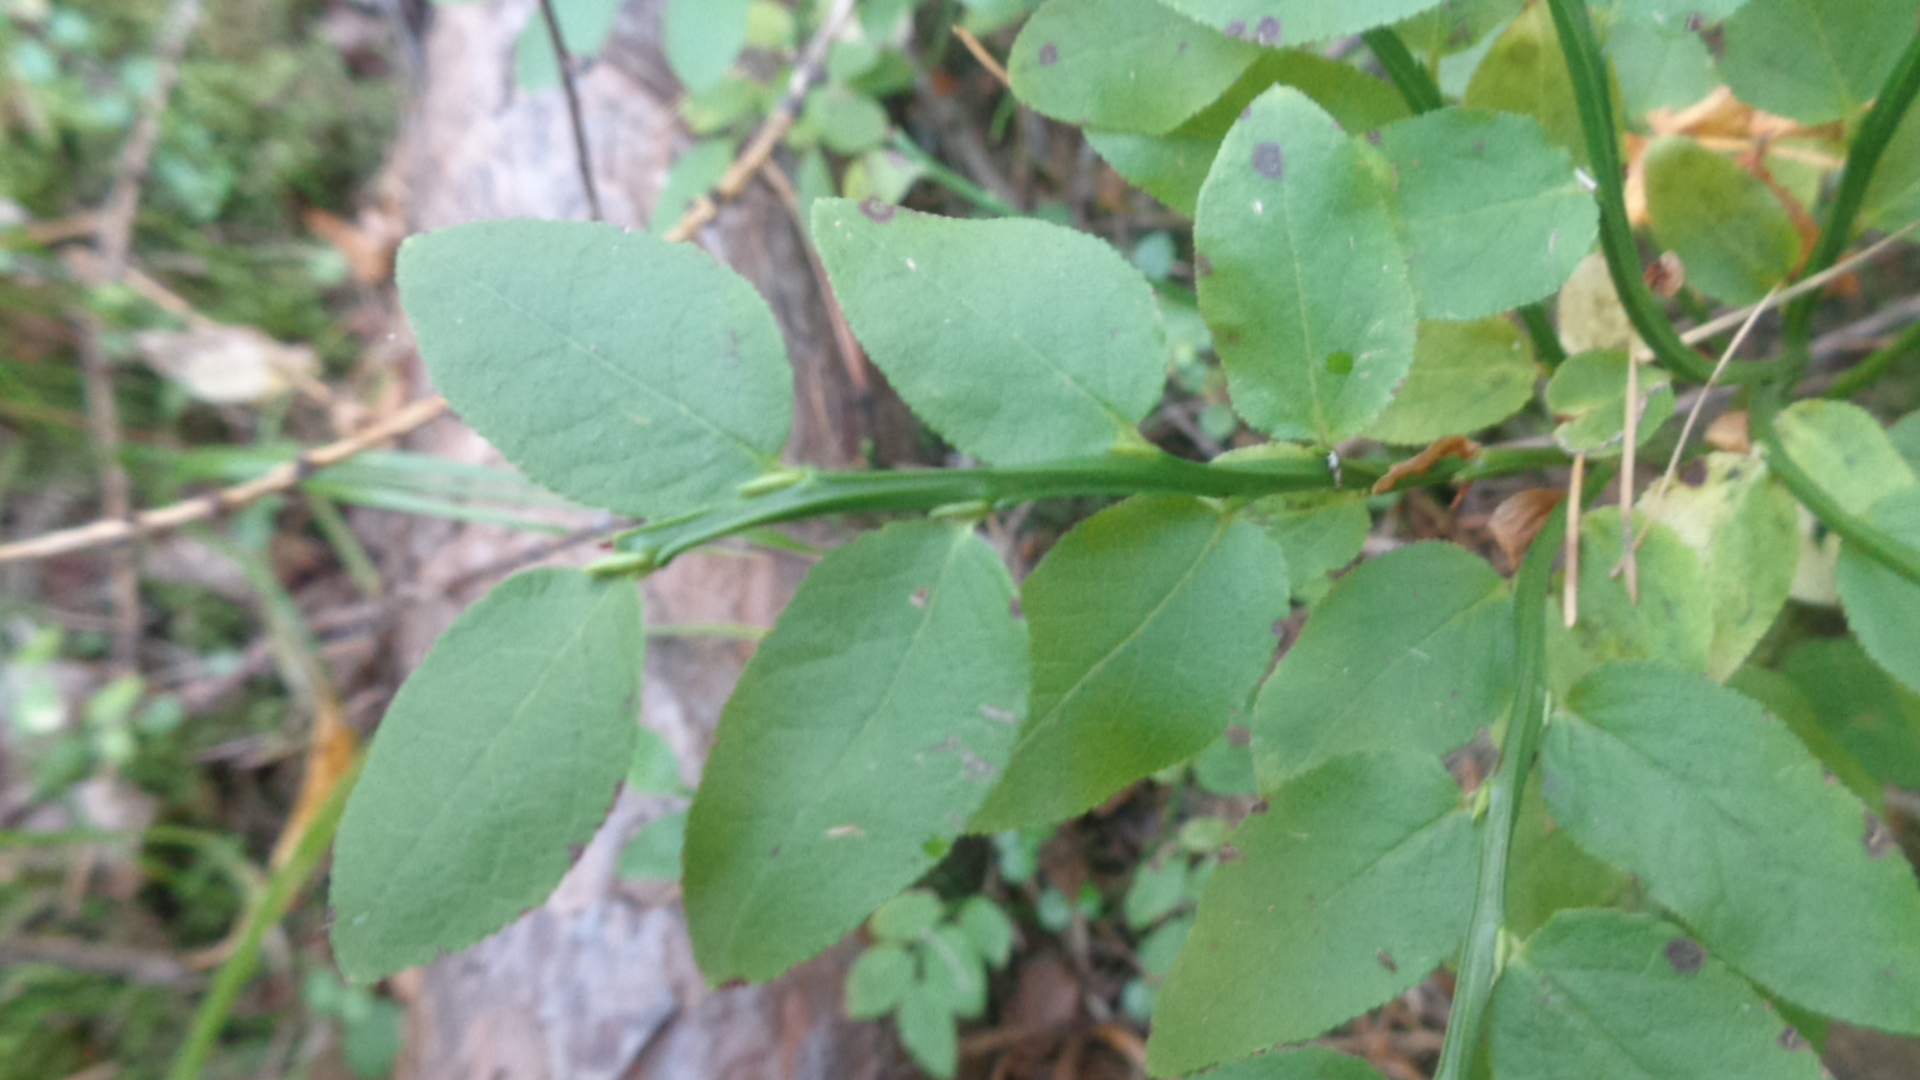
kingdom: Plantae
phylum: Tracheophyta
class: Magnoliopsida
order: Ericales
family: Ericaceae
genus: Vaccinium
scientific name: Vaccinium myrtillus
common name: Bilberry
